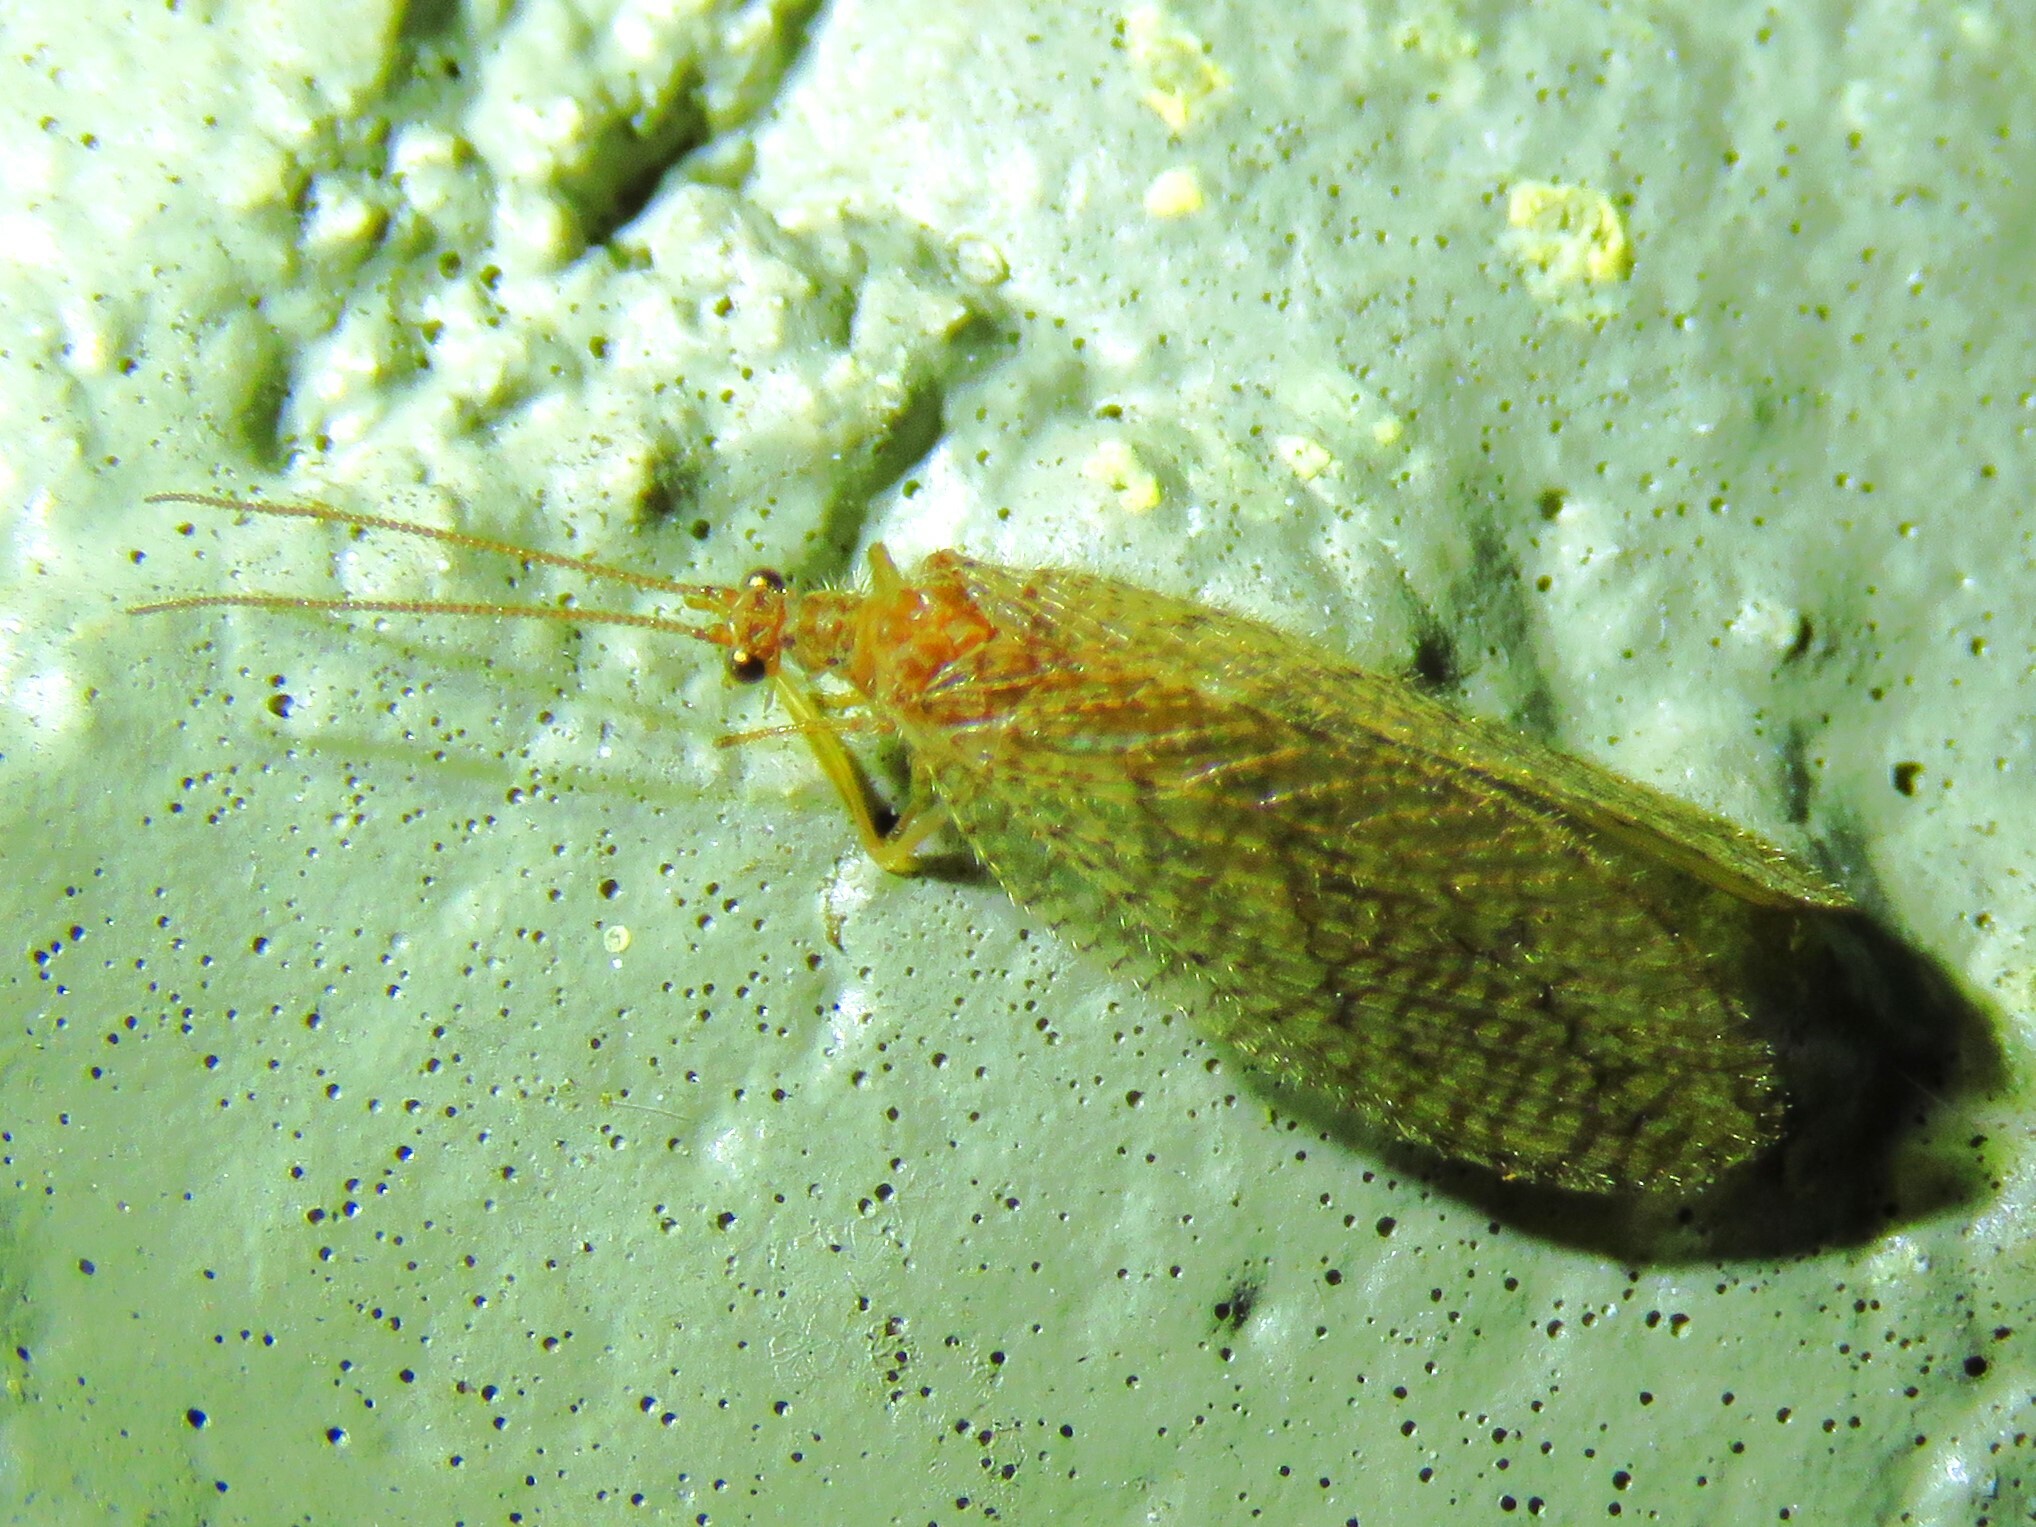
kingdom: Animalia
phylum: Arthropoda
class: Insecta
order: Neuroptera
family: Hemerobiidae
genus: Micromus
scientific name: Micromus posticus
